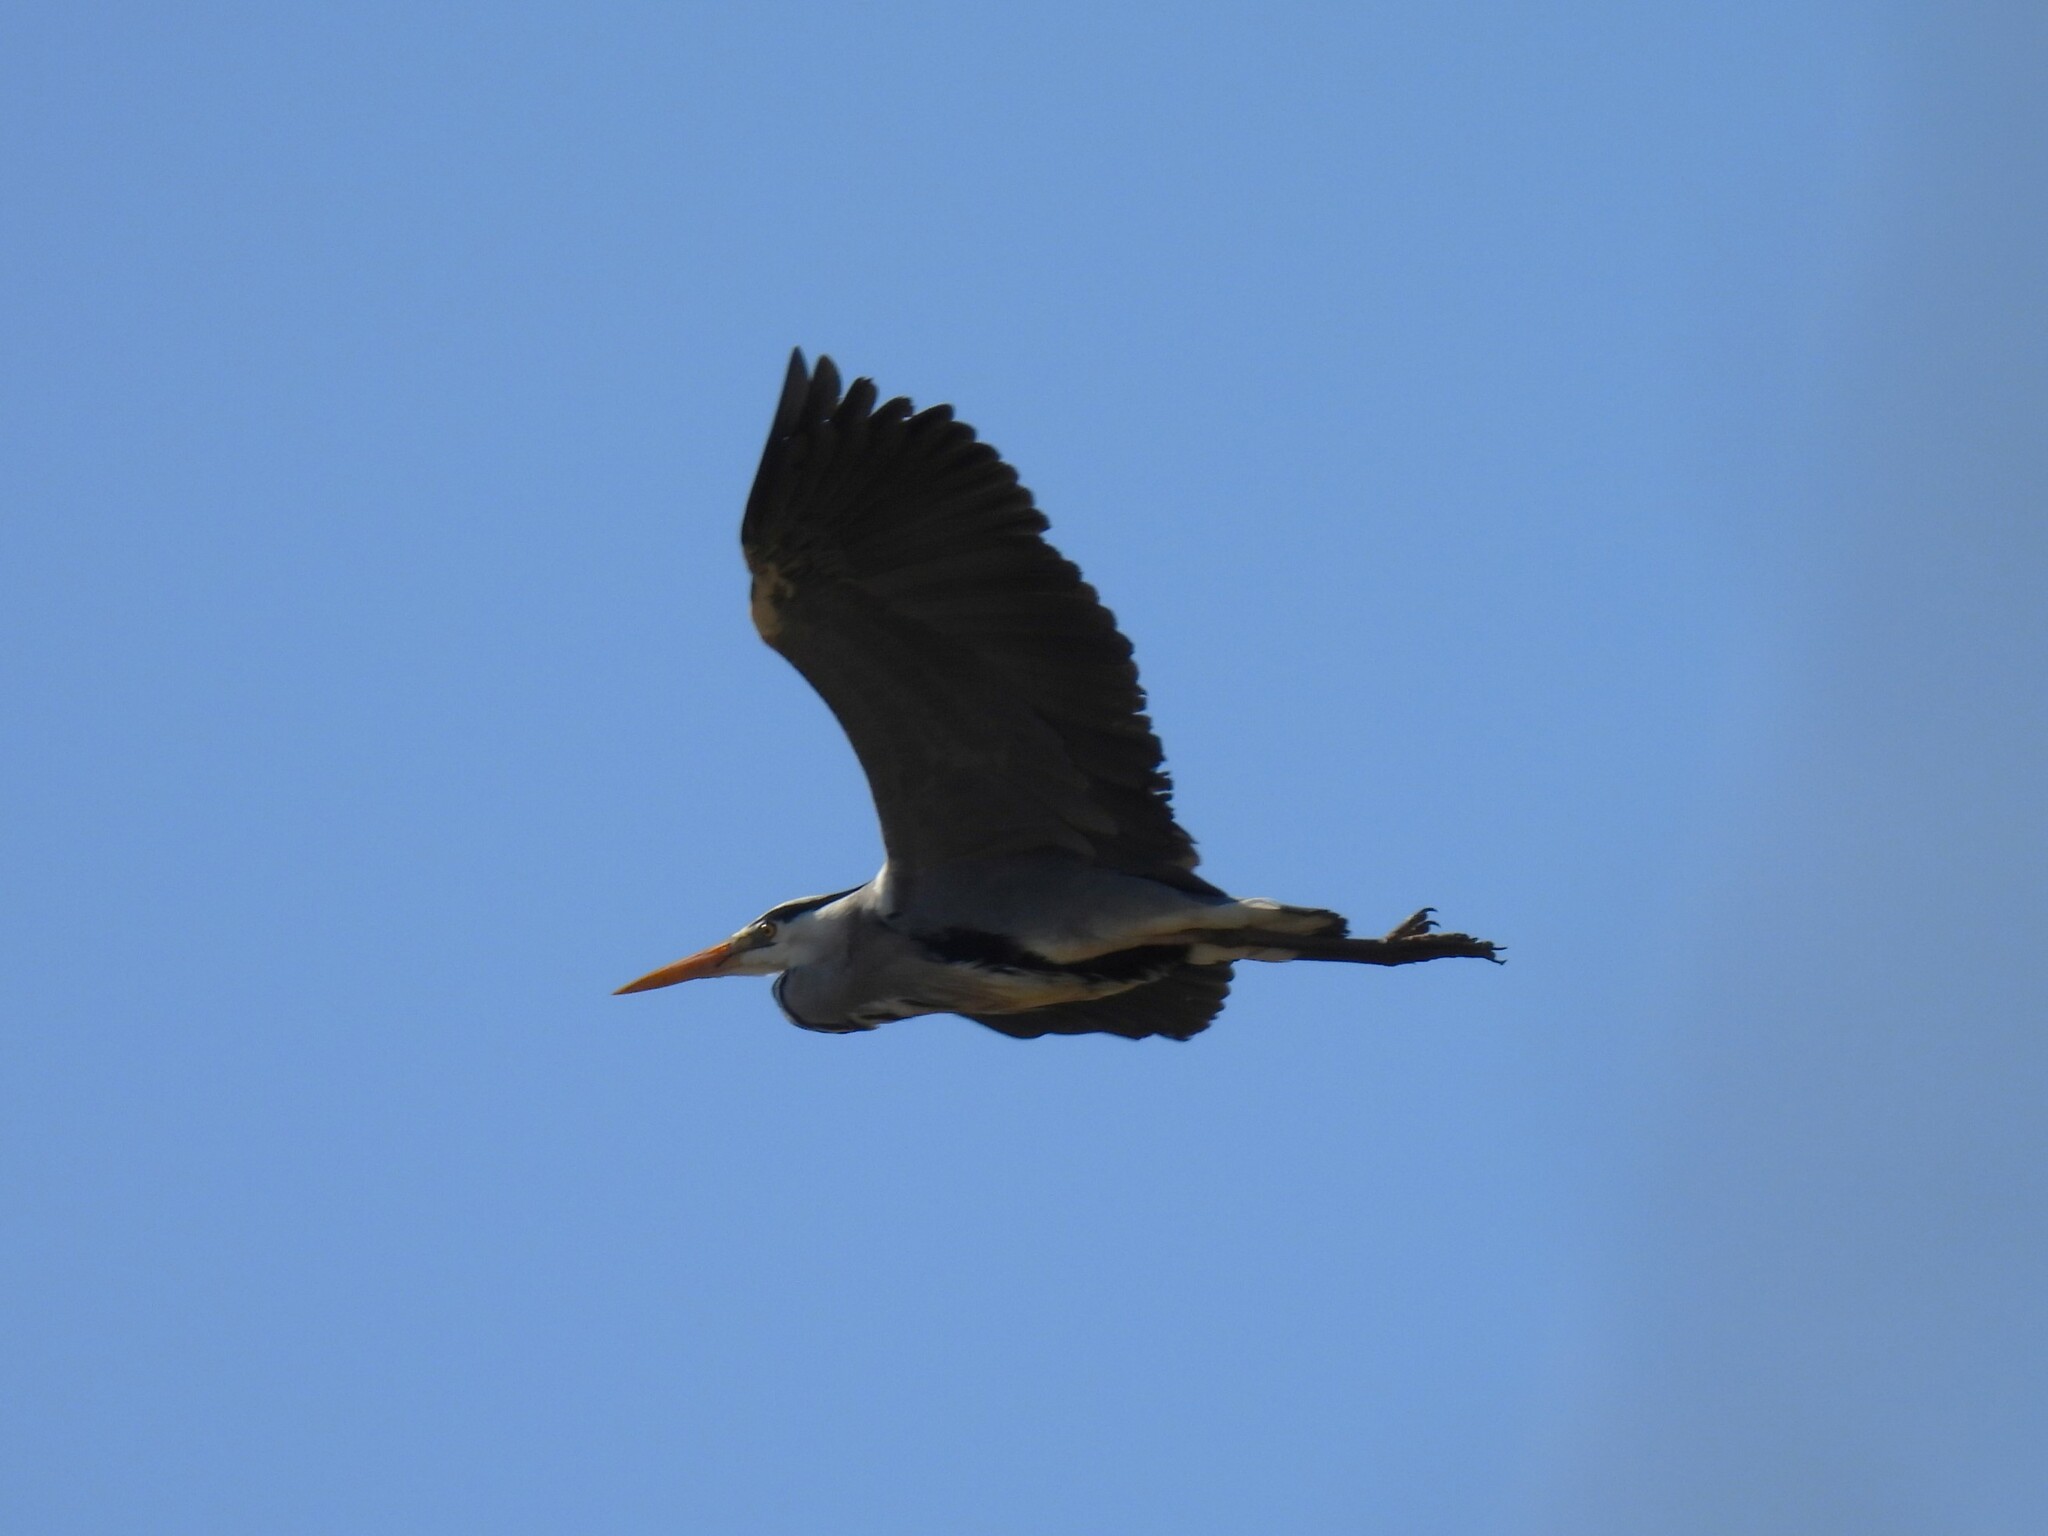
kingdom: Animalia
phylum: Chordata
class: Aves
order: Pelecaniformes
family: Ardeidae
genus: Ardea
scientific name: Ardea cinerea
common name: Grey heron
